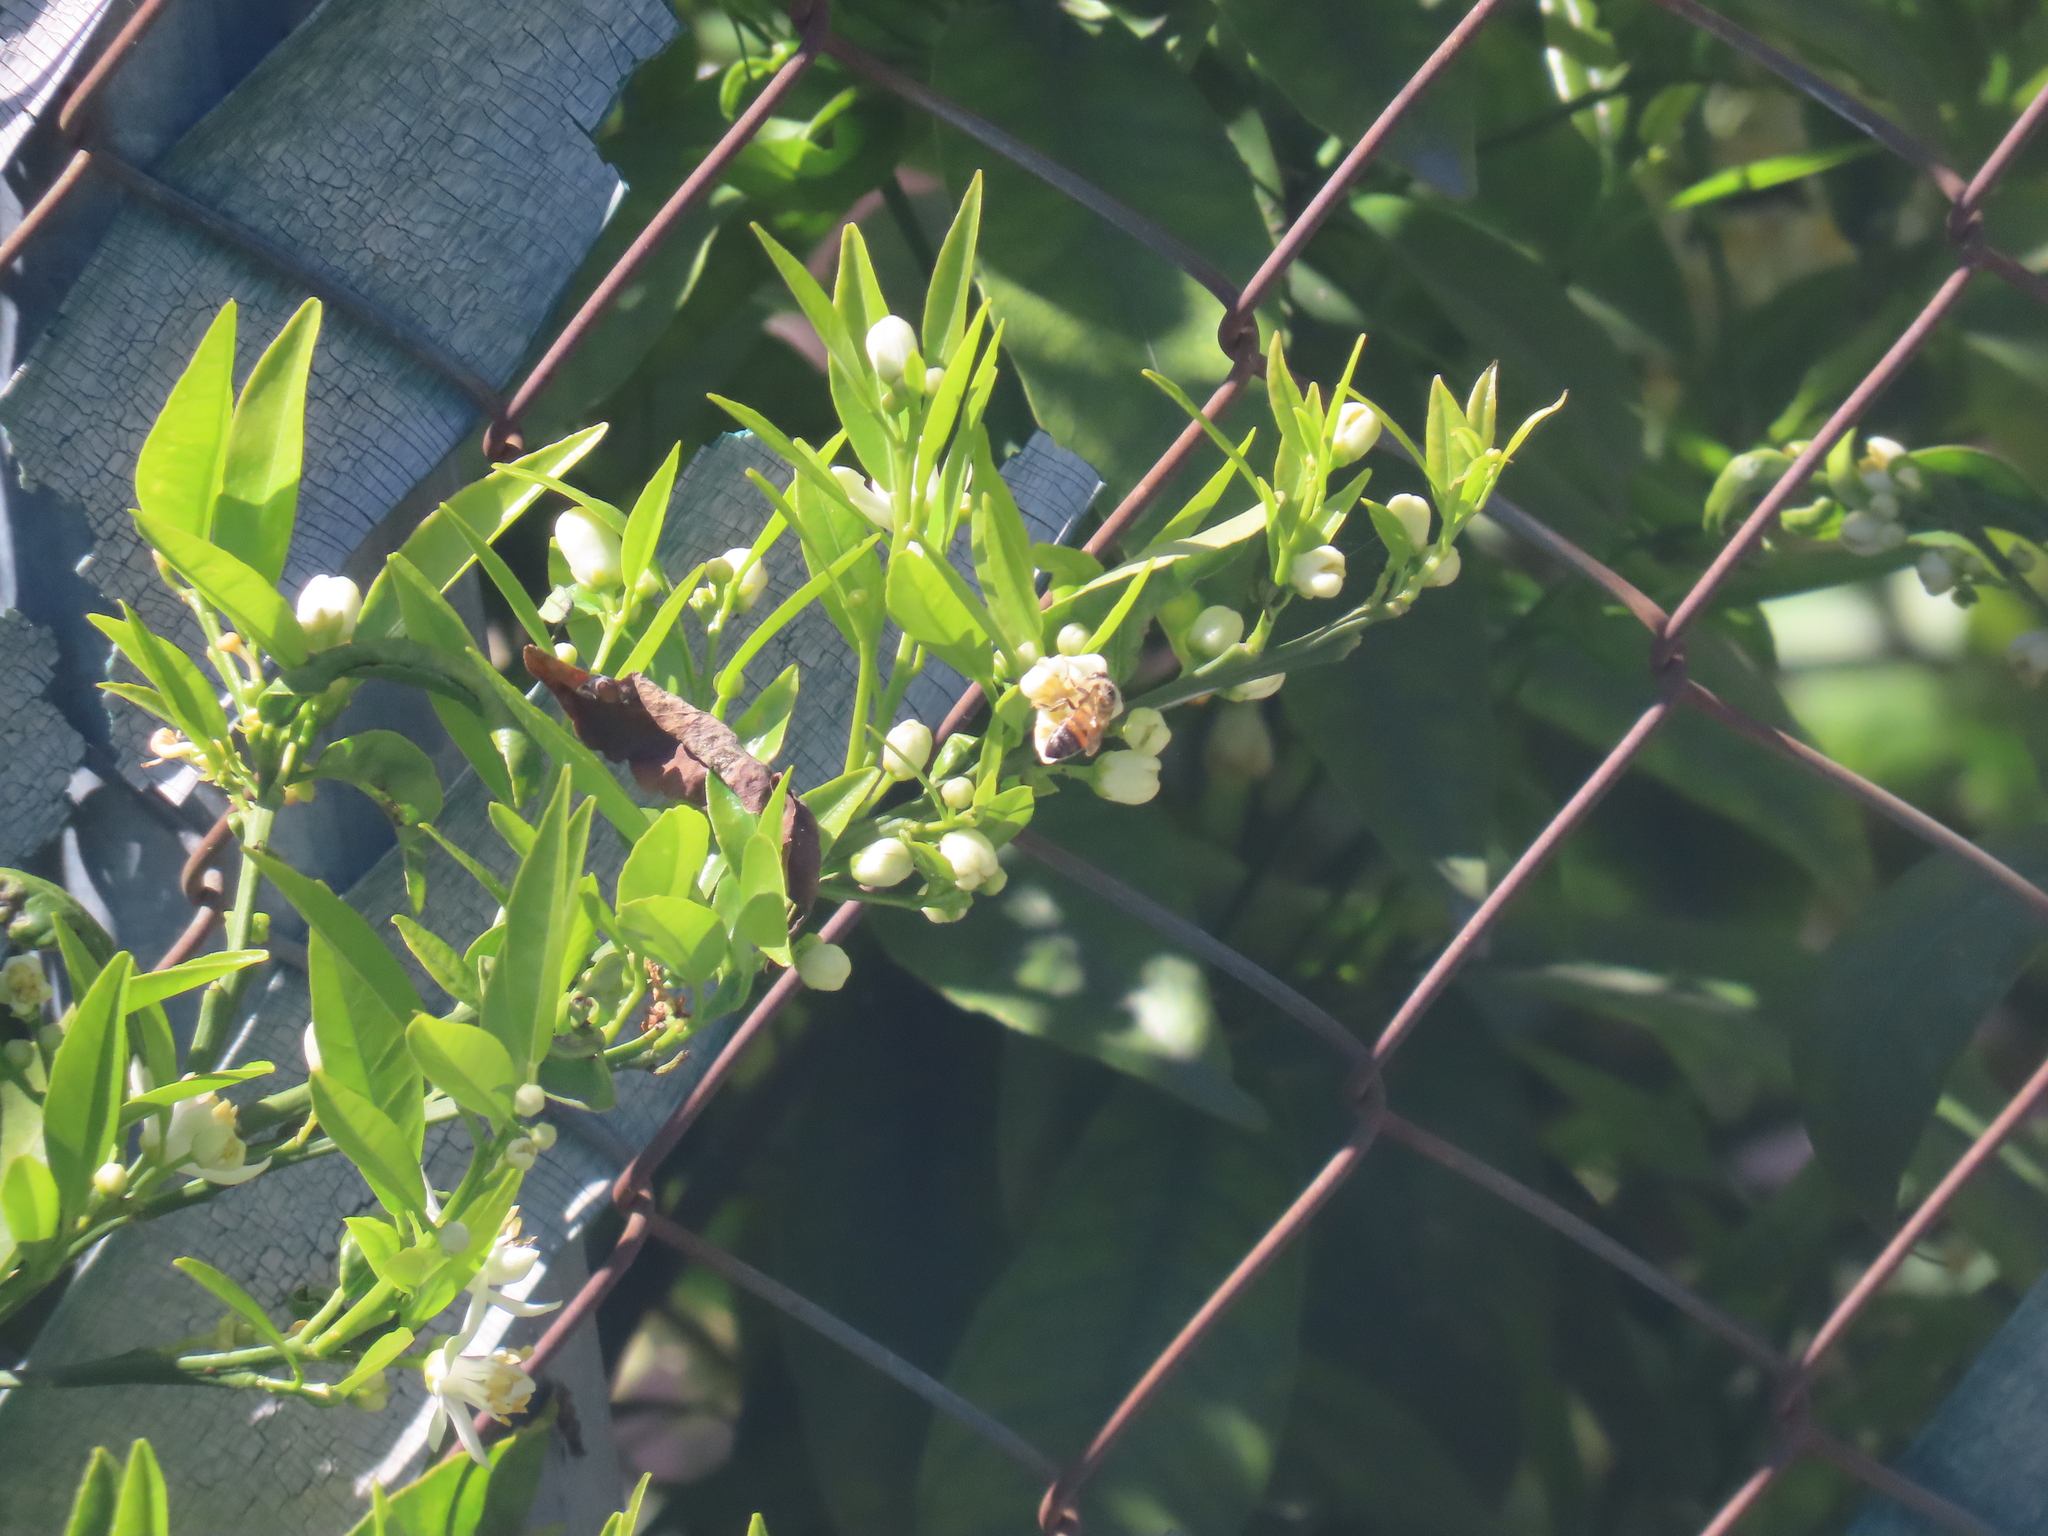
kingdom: Animalia
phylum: Arthropoda
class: Insecta
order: Hymenoptera
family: Apidae
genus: Apis
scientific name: Apis mellifera
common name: Honey bee
